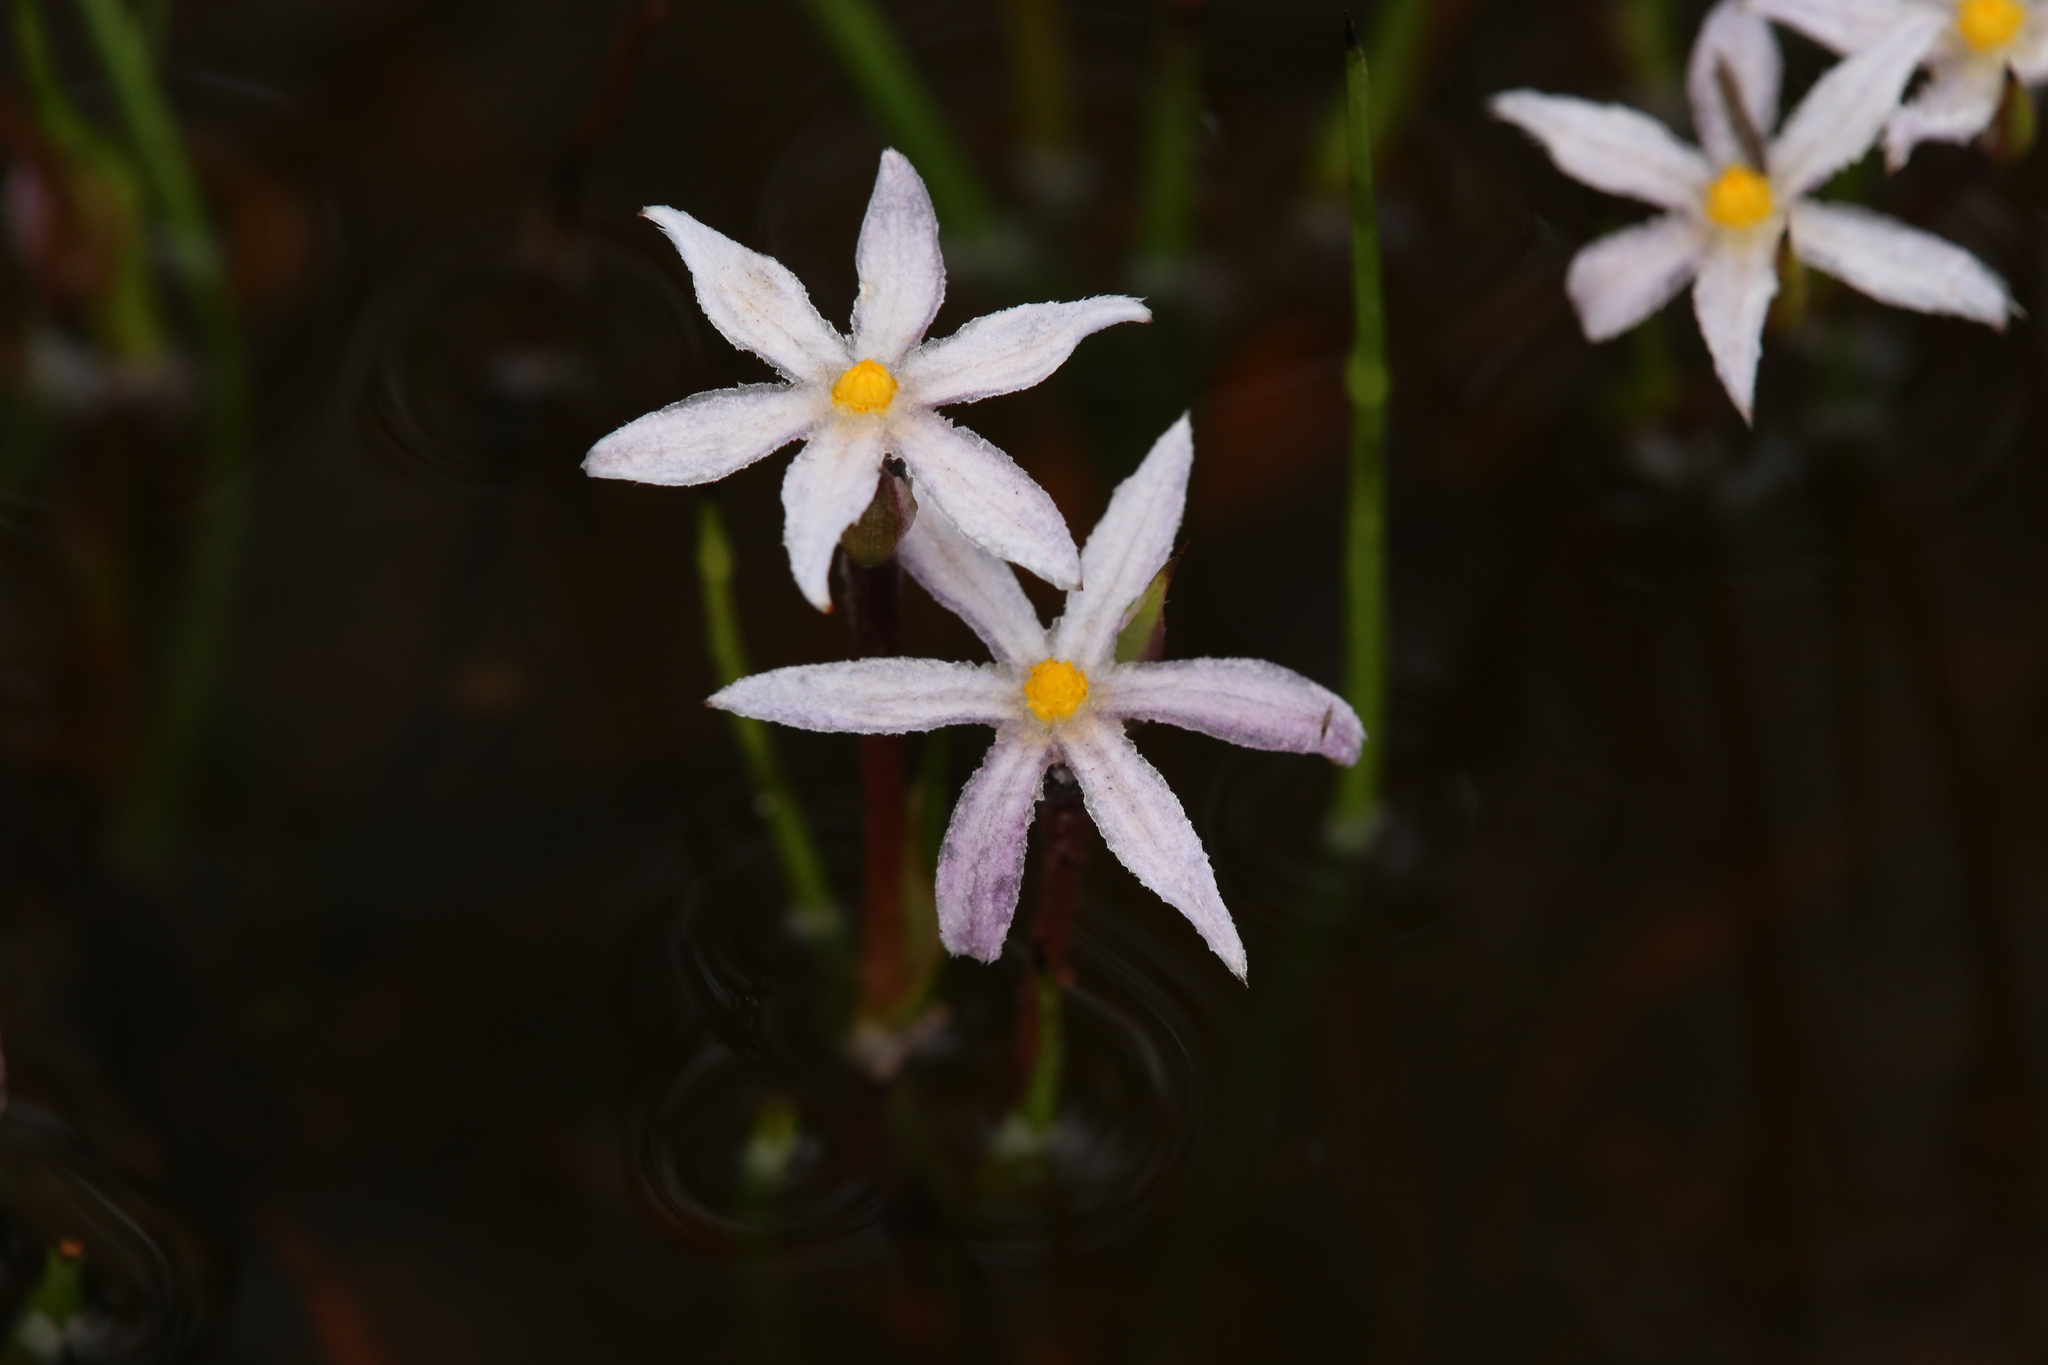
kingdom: Plantae
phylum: Tracheophyta
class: Liliopsida
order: Commelinales
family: Haemodoraceae
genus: Tribonanthes
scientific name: Tribonanthes elongata
